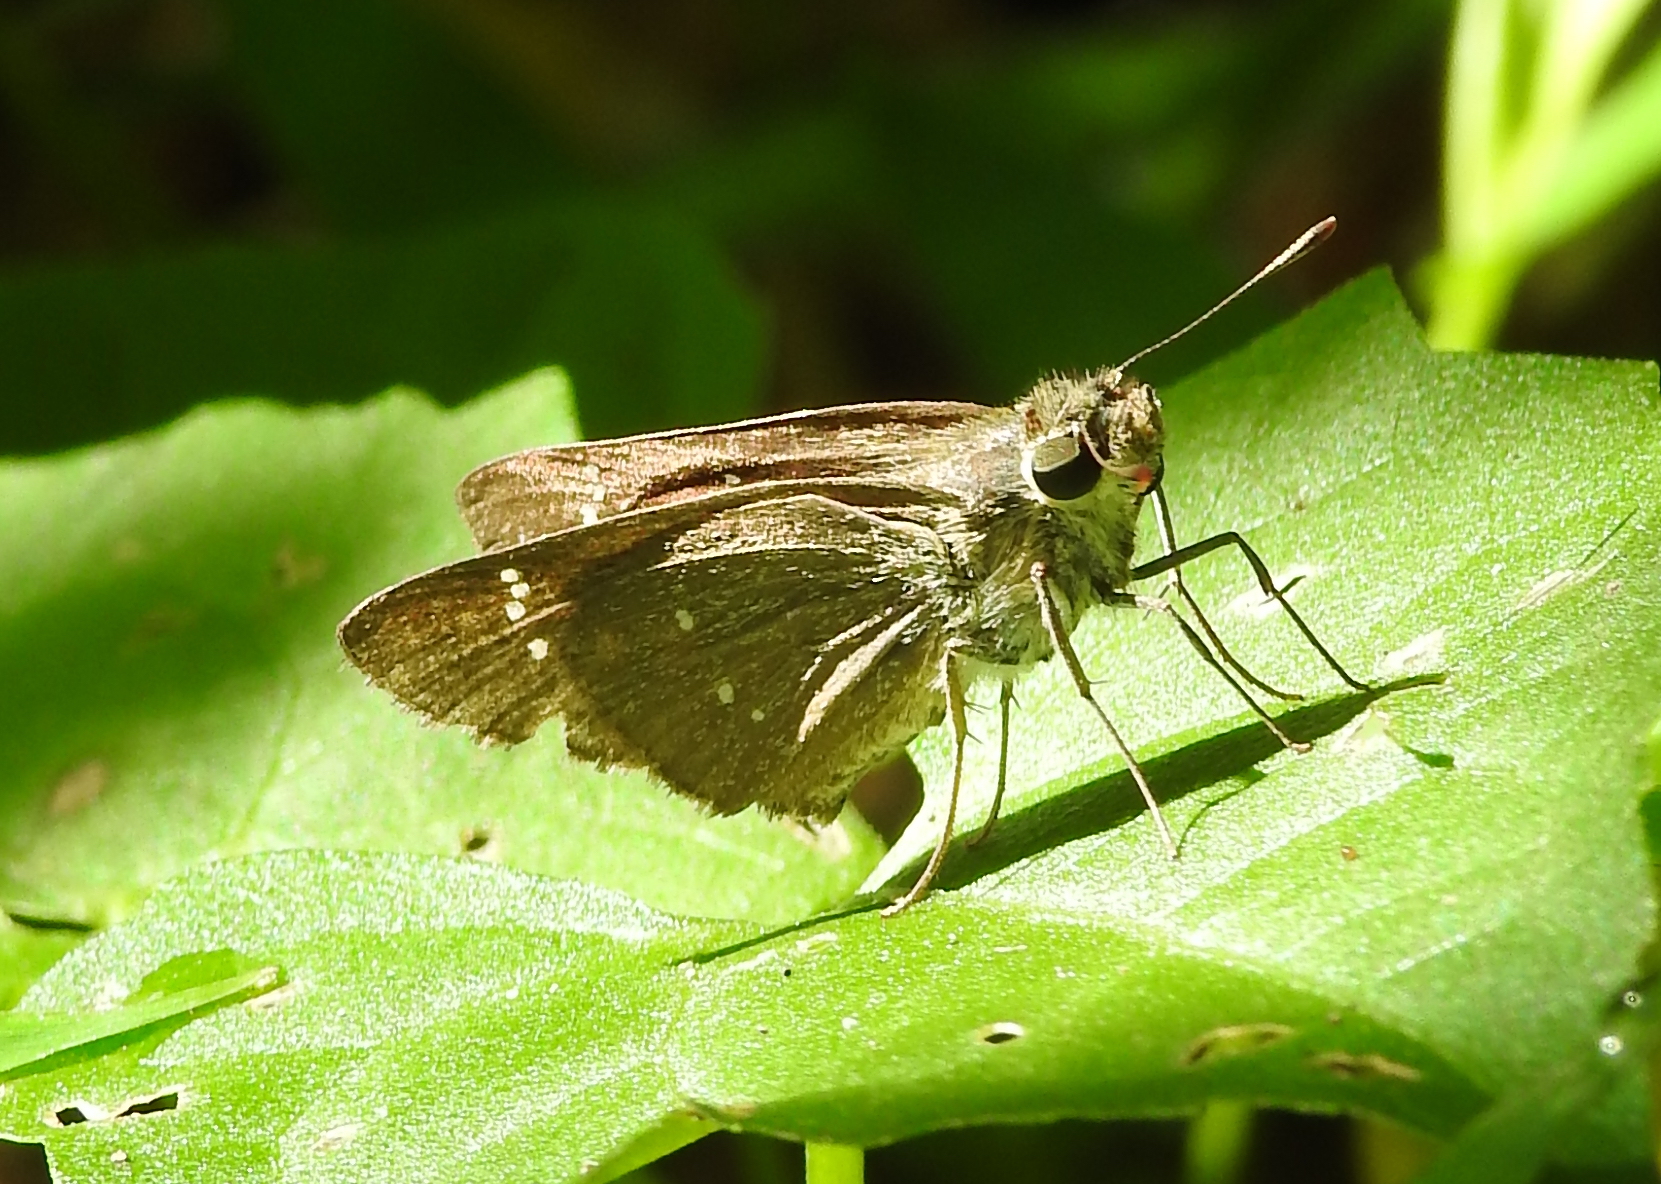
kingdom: Animalia
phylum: Arthropoda
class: Insecta
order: Lepidoptera
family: Hesperiidae
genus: Borbo
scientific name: Borbo cinnara
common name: Formosan swift
